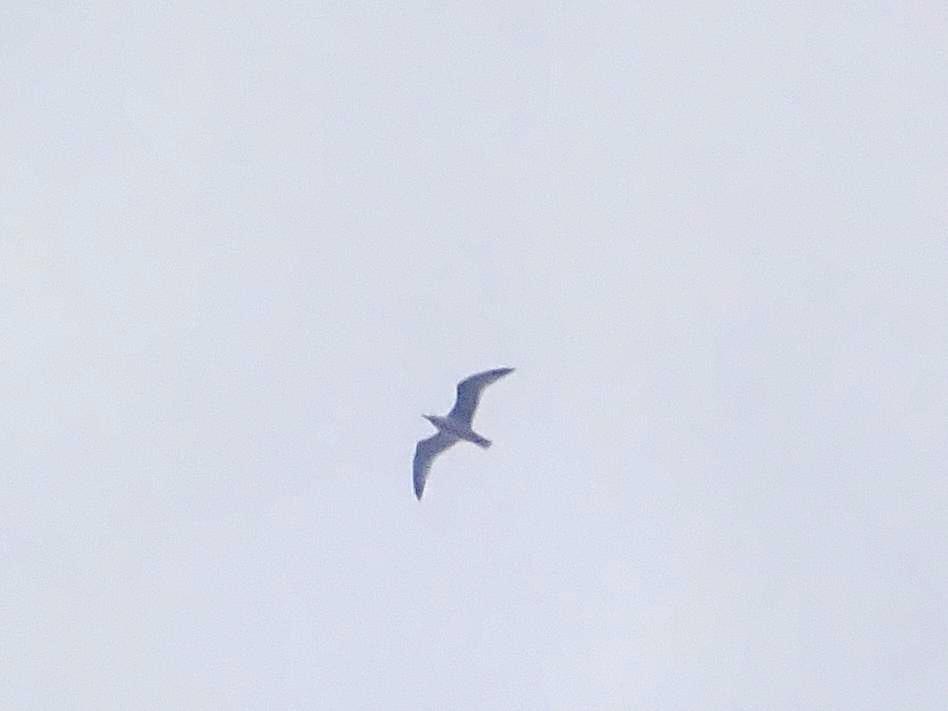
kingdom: Animalia
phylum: Chordata
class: Aves
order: Charadriiformes
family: Laridae
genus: Larus
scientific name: Larus argentatus
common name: Herring gull
